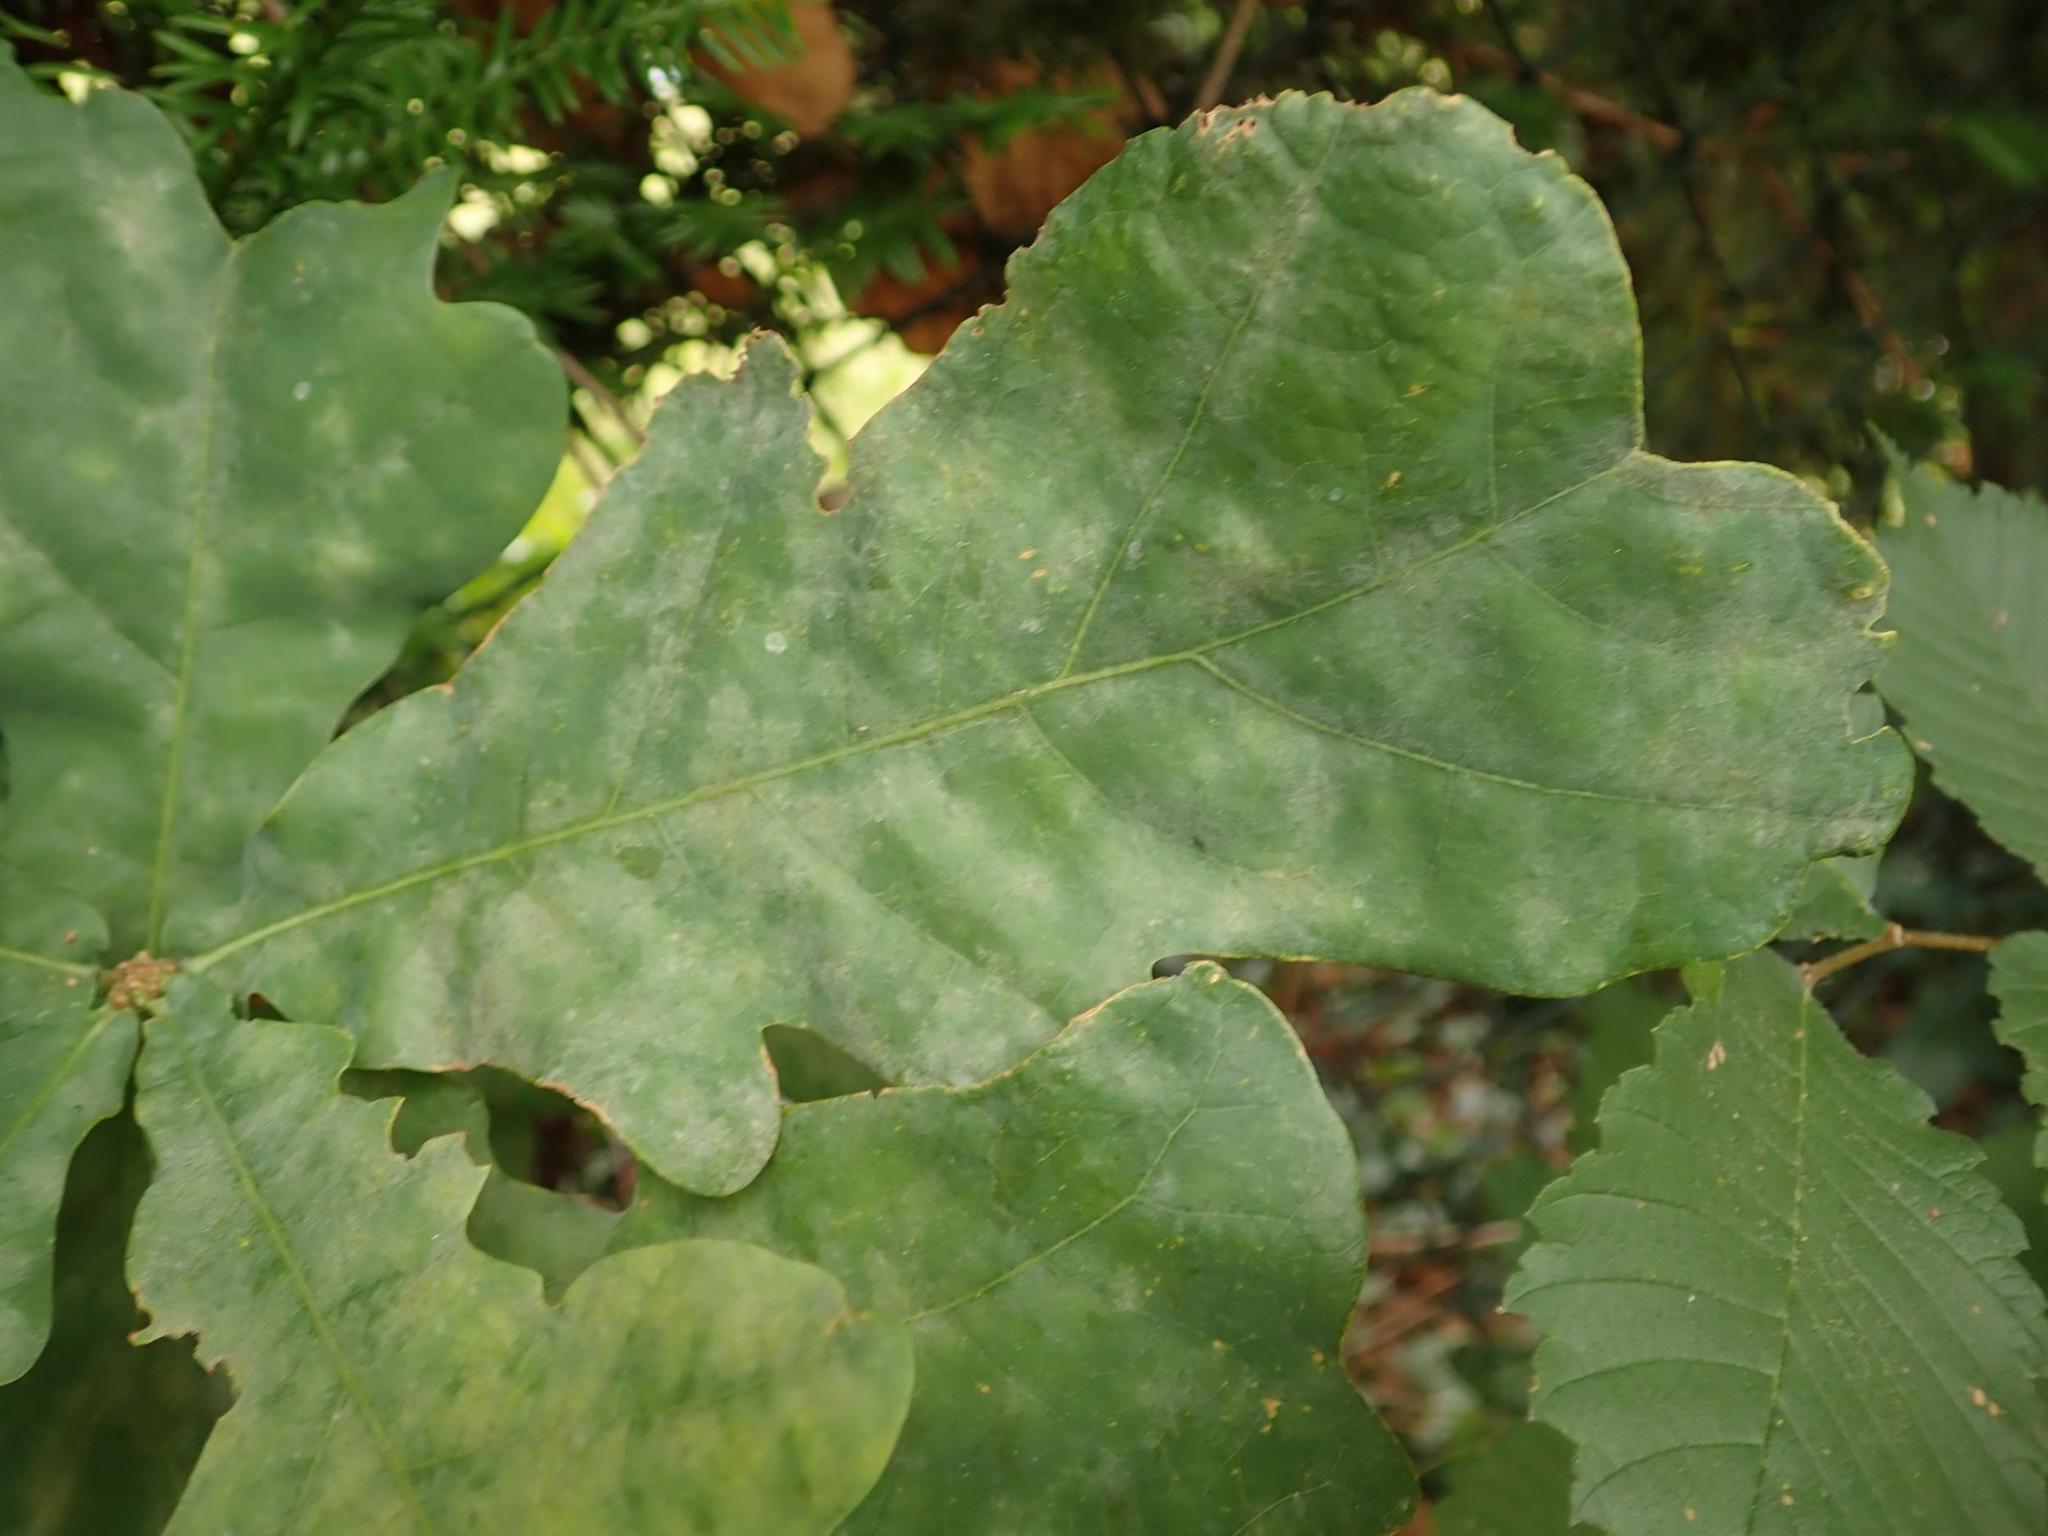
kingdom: Fungi
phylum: Ascomycota
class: Leotiomycetes
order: Helotiales
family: Erysiphaceae
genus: Erysiphe
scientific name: Erysiphe
